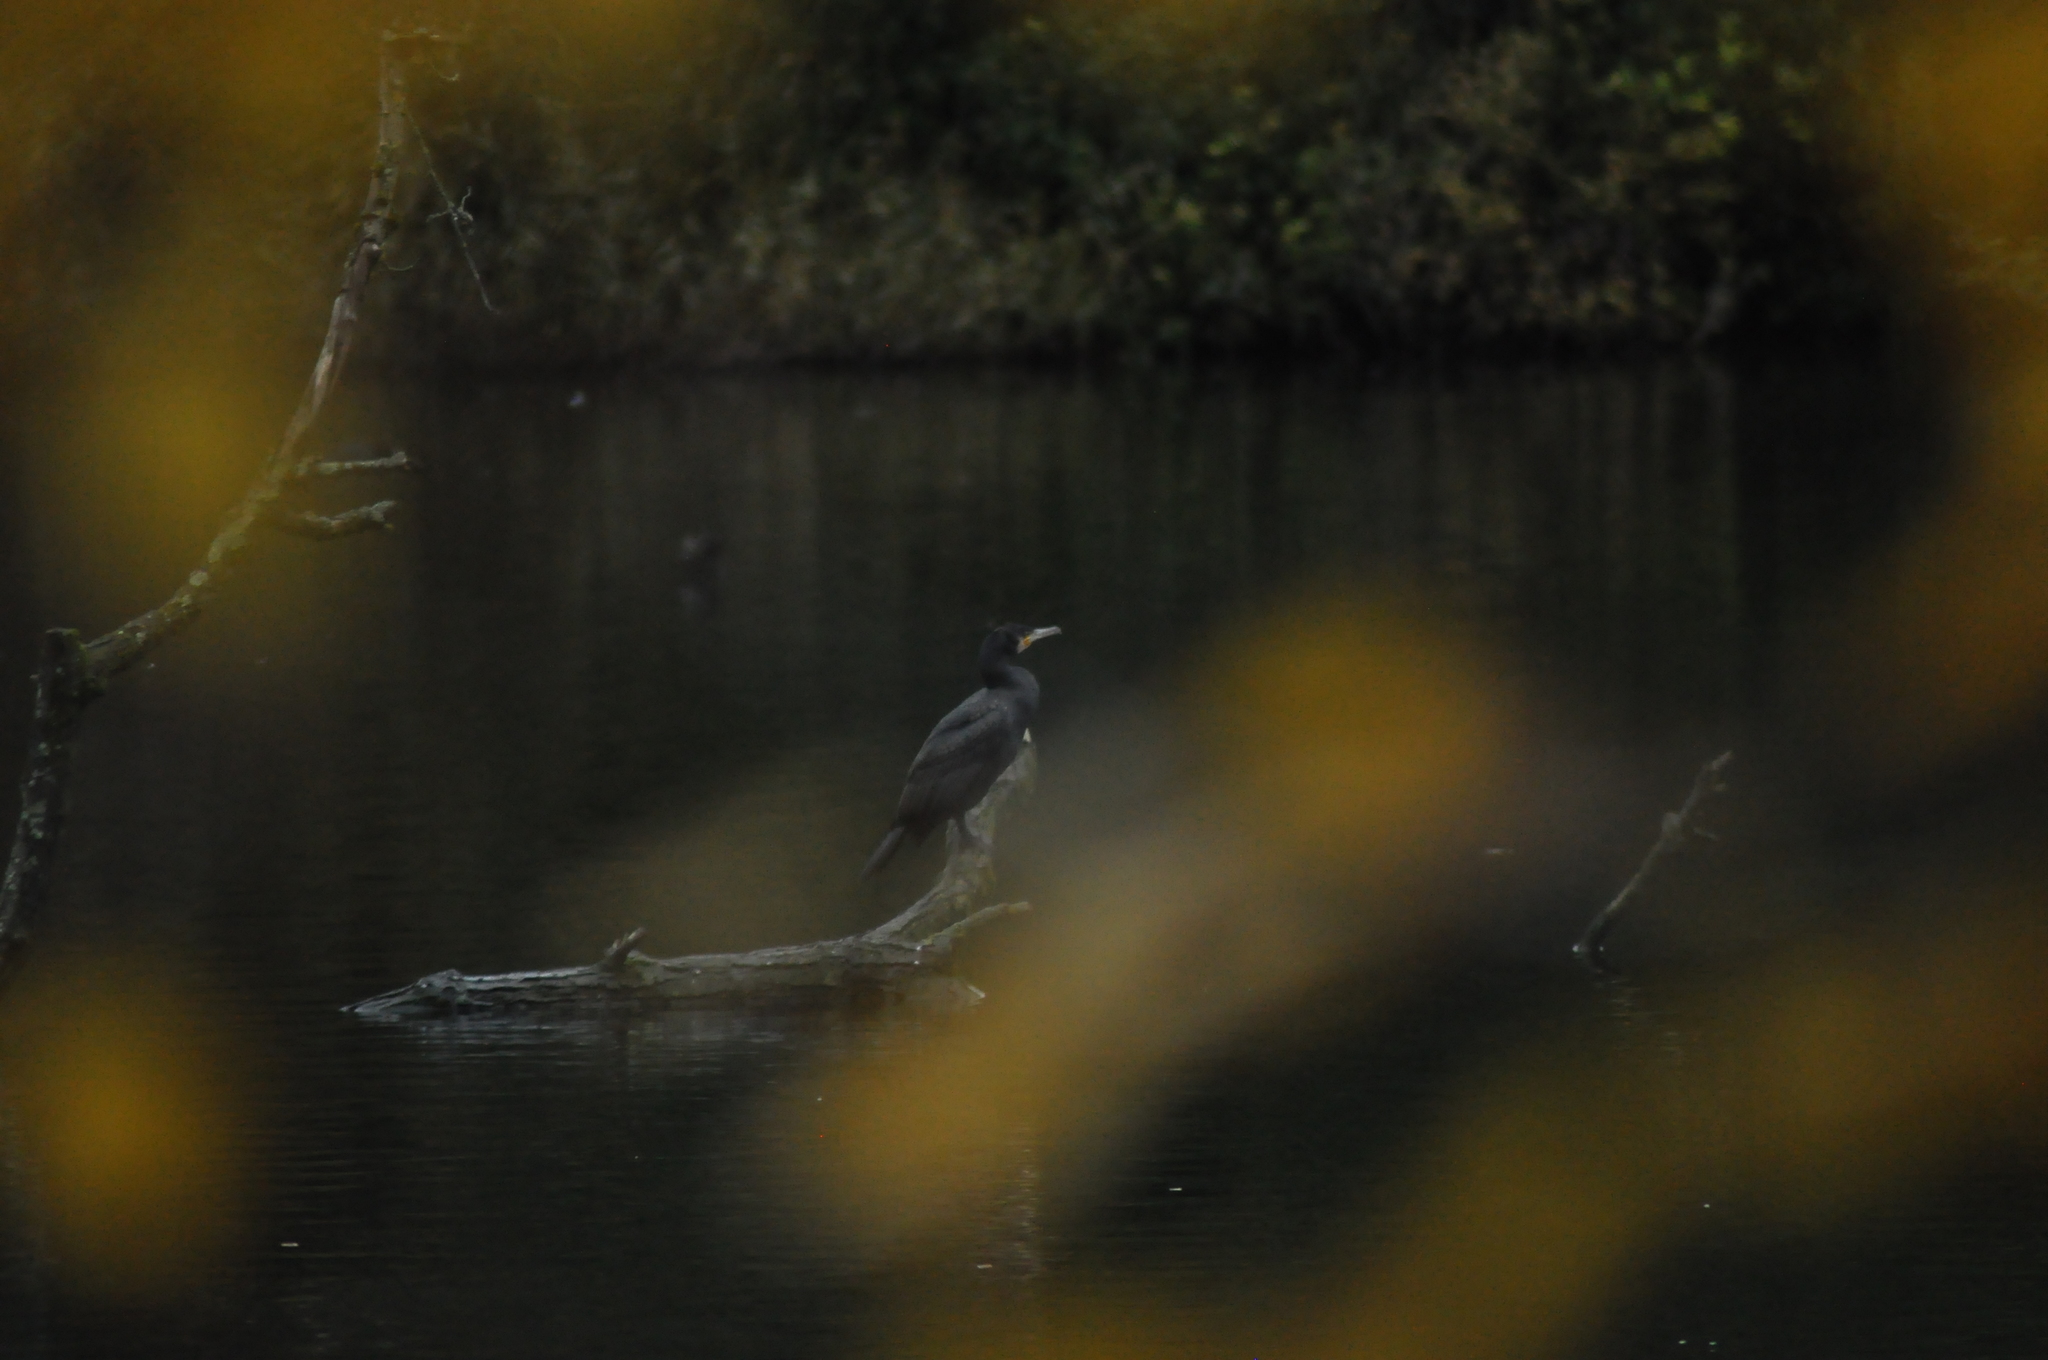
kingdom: Animalia
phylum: Chordata
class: Aves
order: Suliformes
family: Phalacrocoracidae
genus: Phalacrocorax
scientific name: Phalacrocorax carbo
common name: Great cormorant
